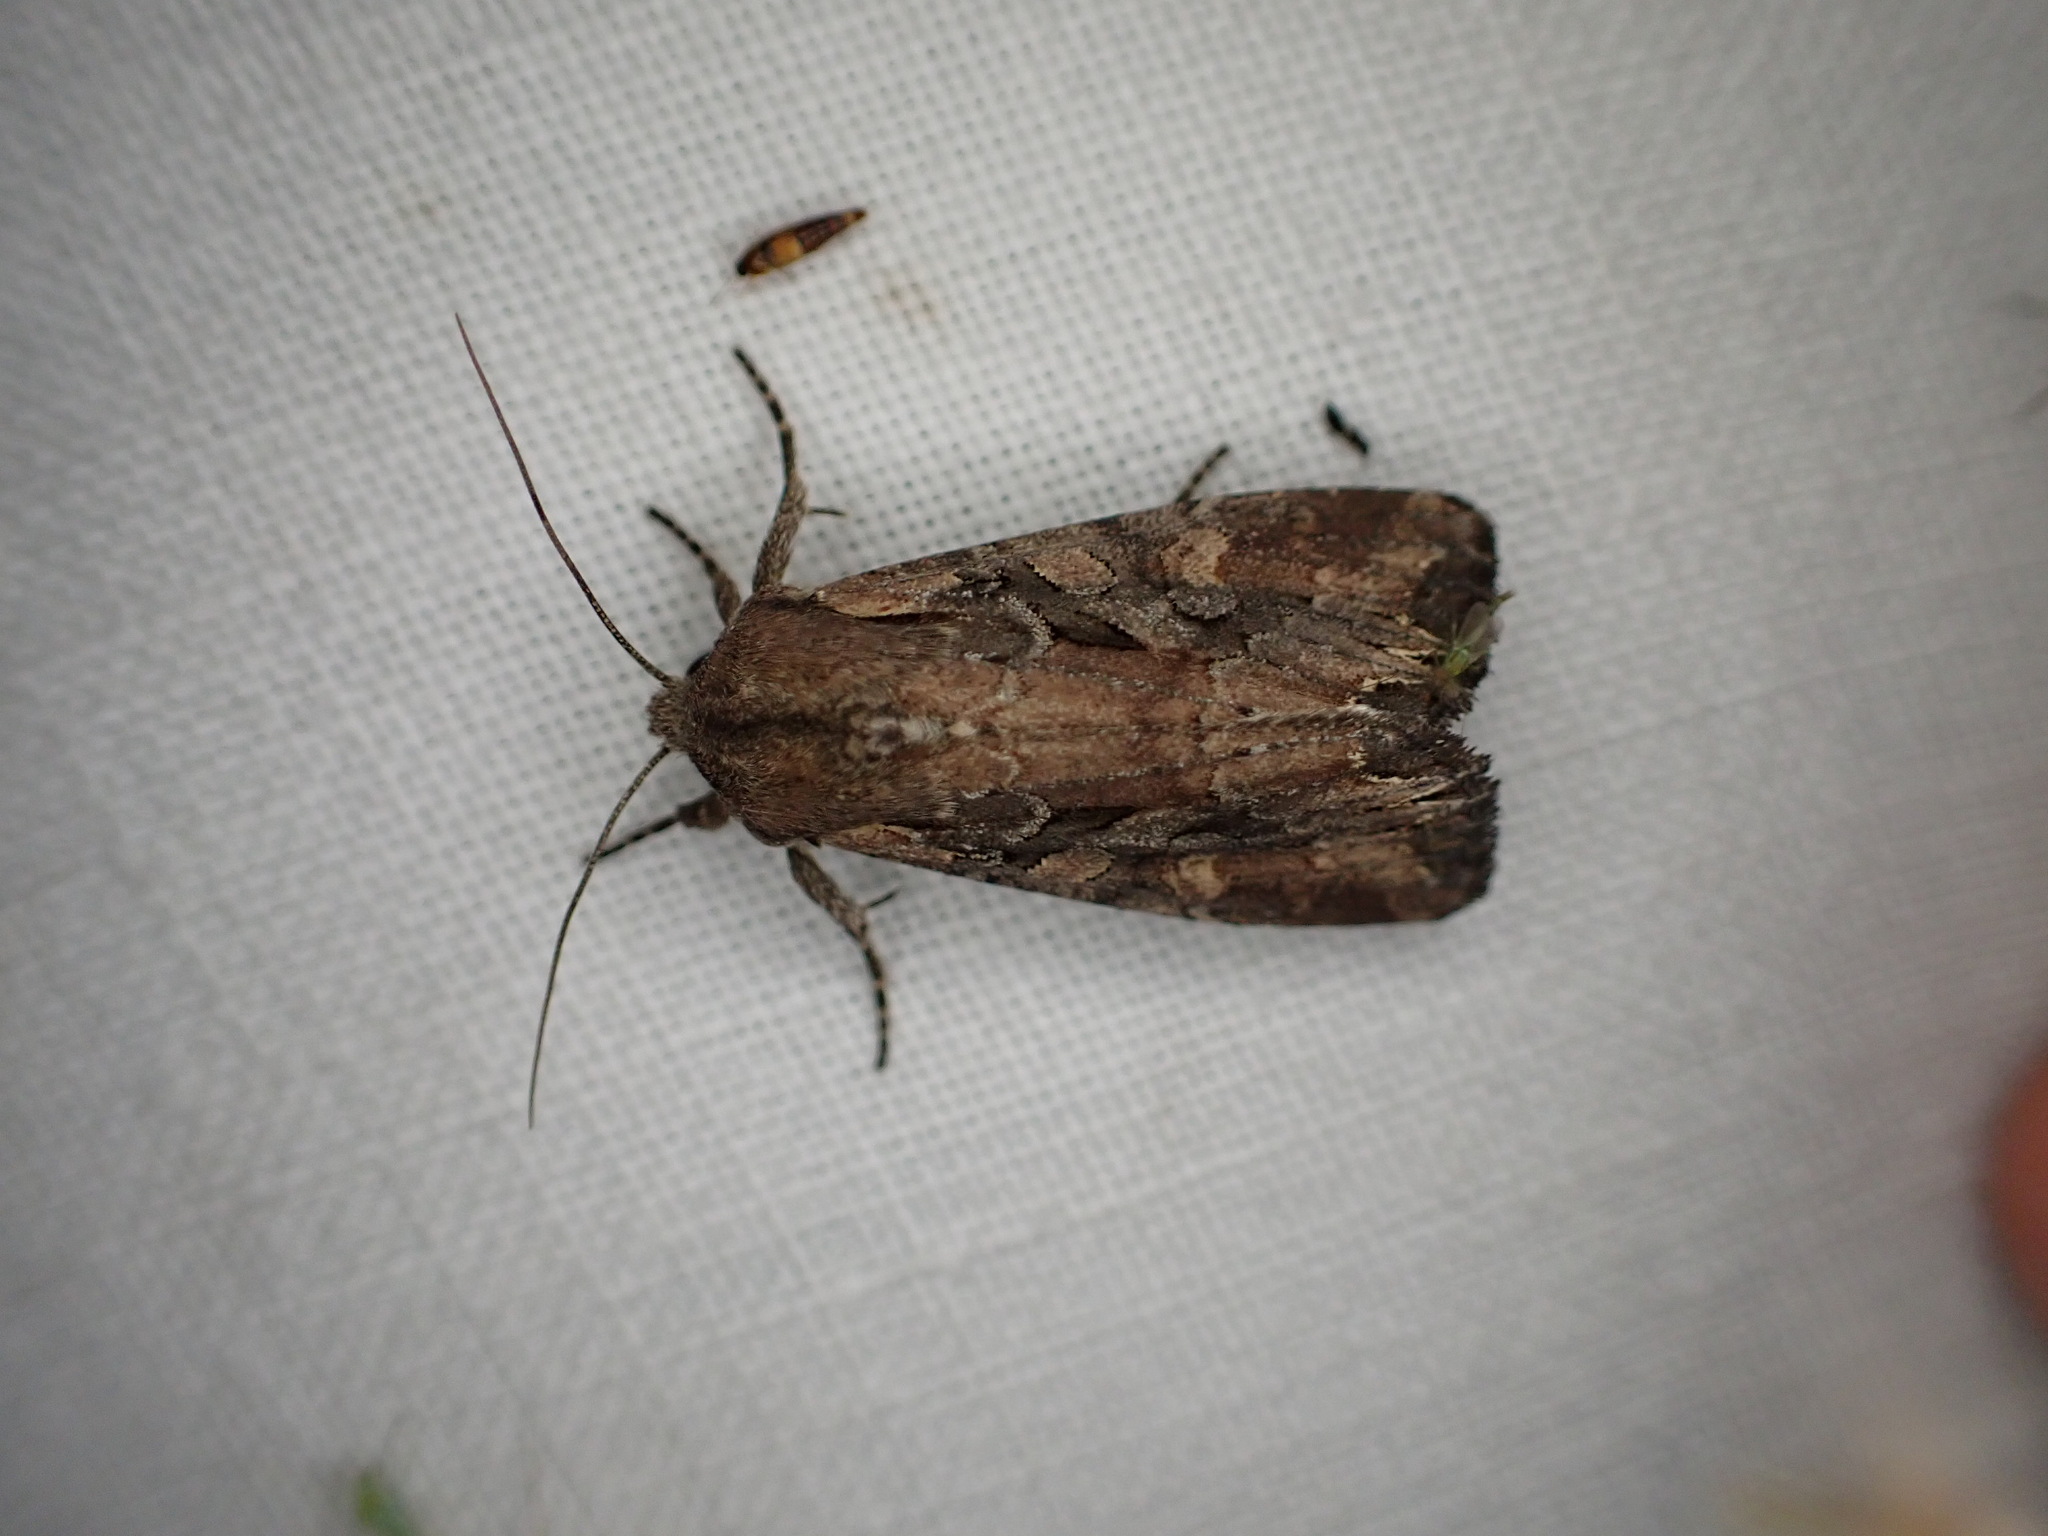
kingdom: Animalia
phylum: Arthropoda
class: Insecta
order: Lepidoptera
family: Noctuidae
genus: Lacanobia
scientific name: Lacanobia suasa
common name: Dog's tooth
